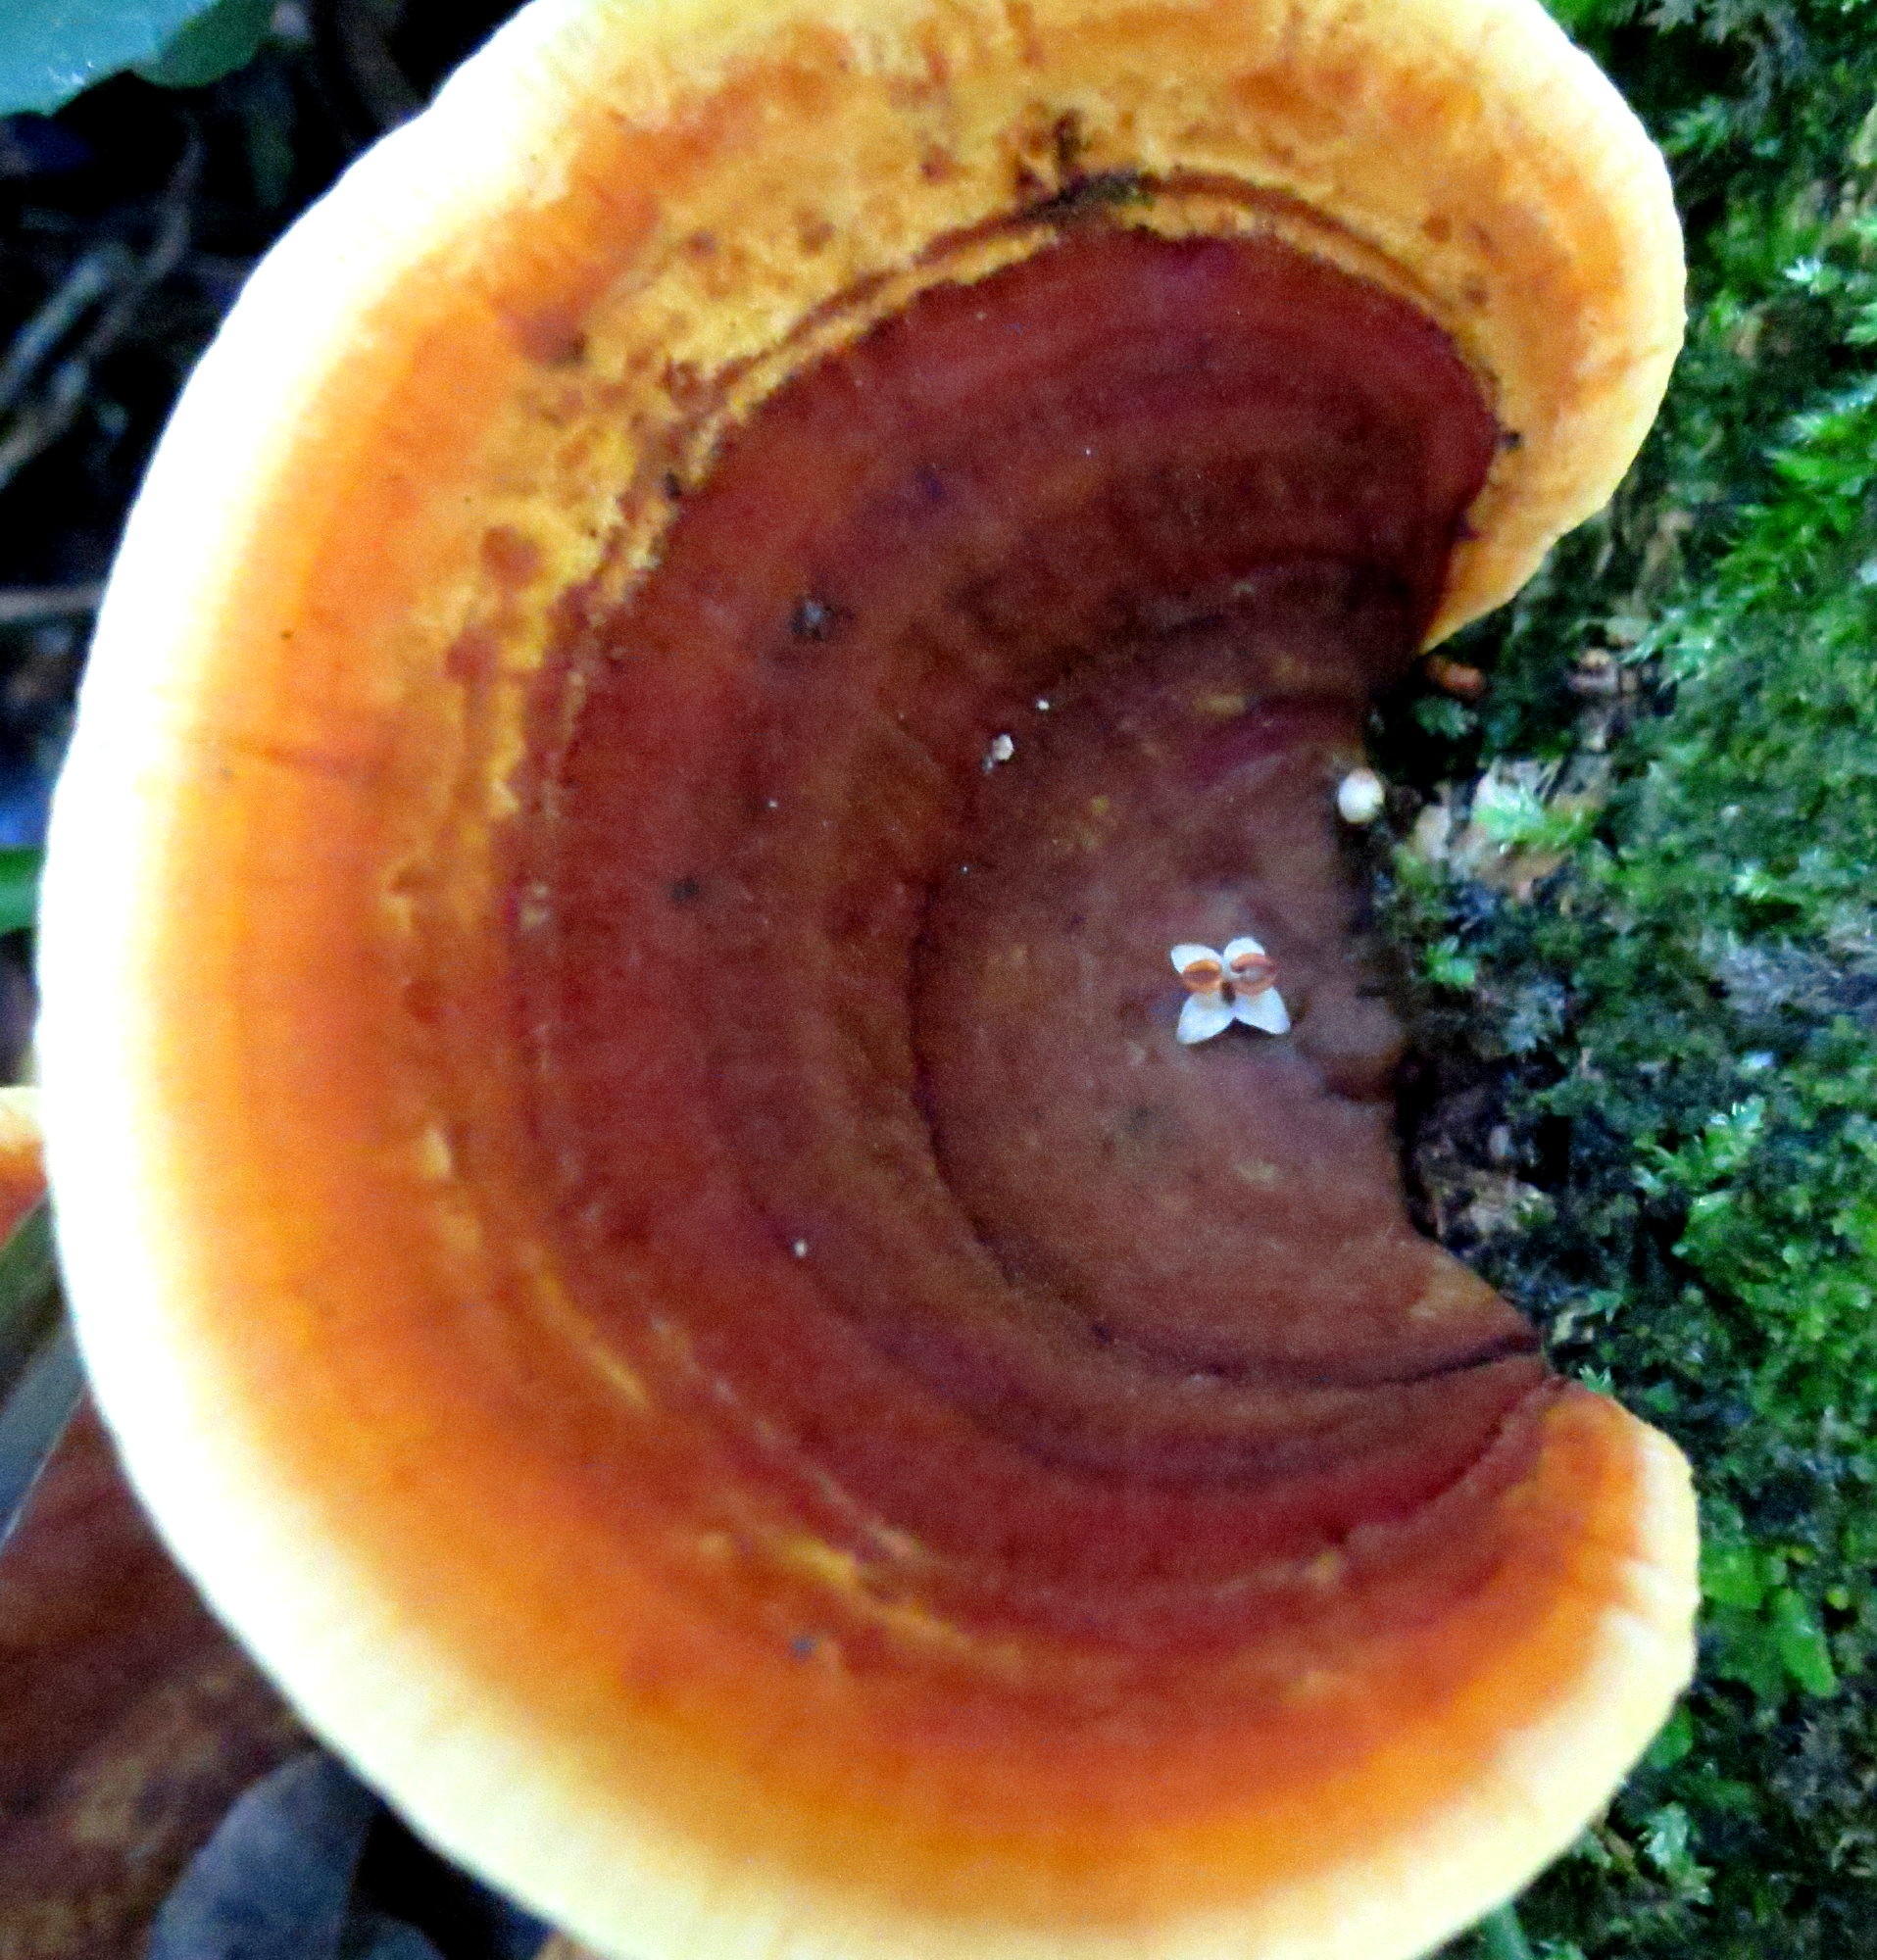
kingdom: Fungi
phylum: Basidiomycota
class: Agaricomycetes
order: Russulales
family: Stereaceae
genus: Stereum
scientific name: Stereum ostrea
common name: False turkeytail
